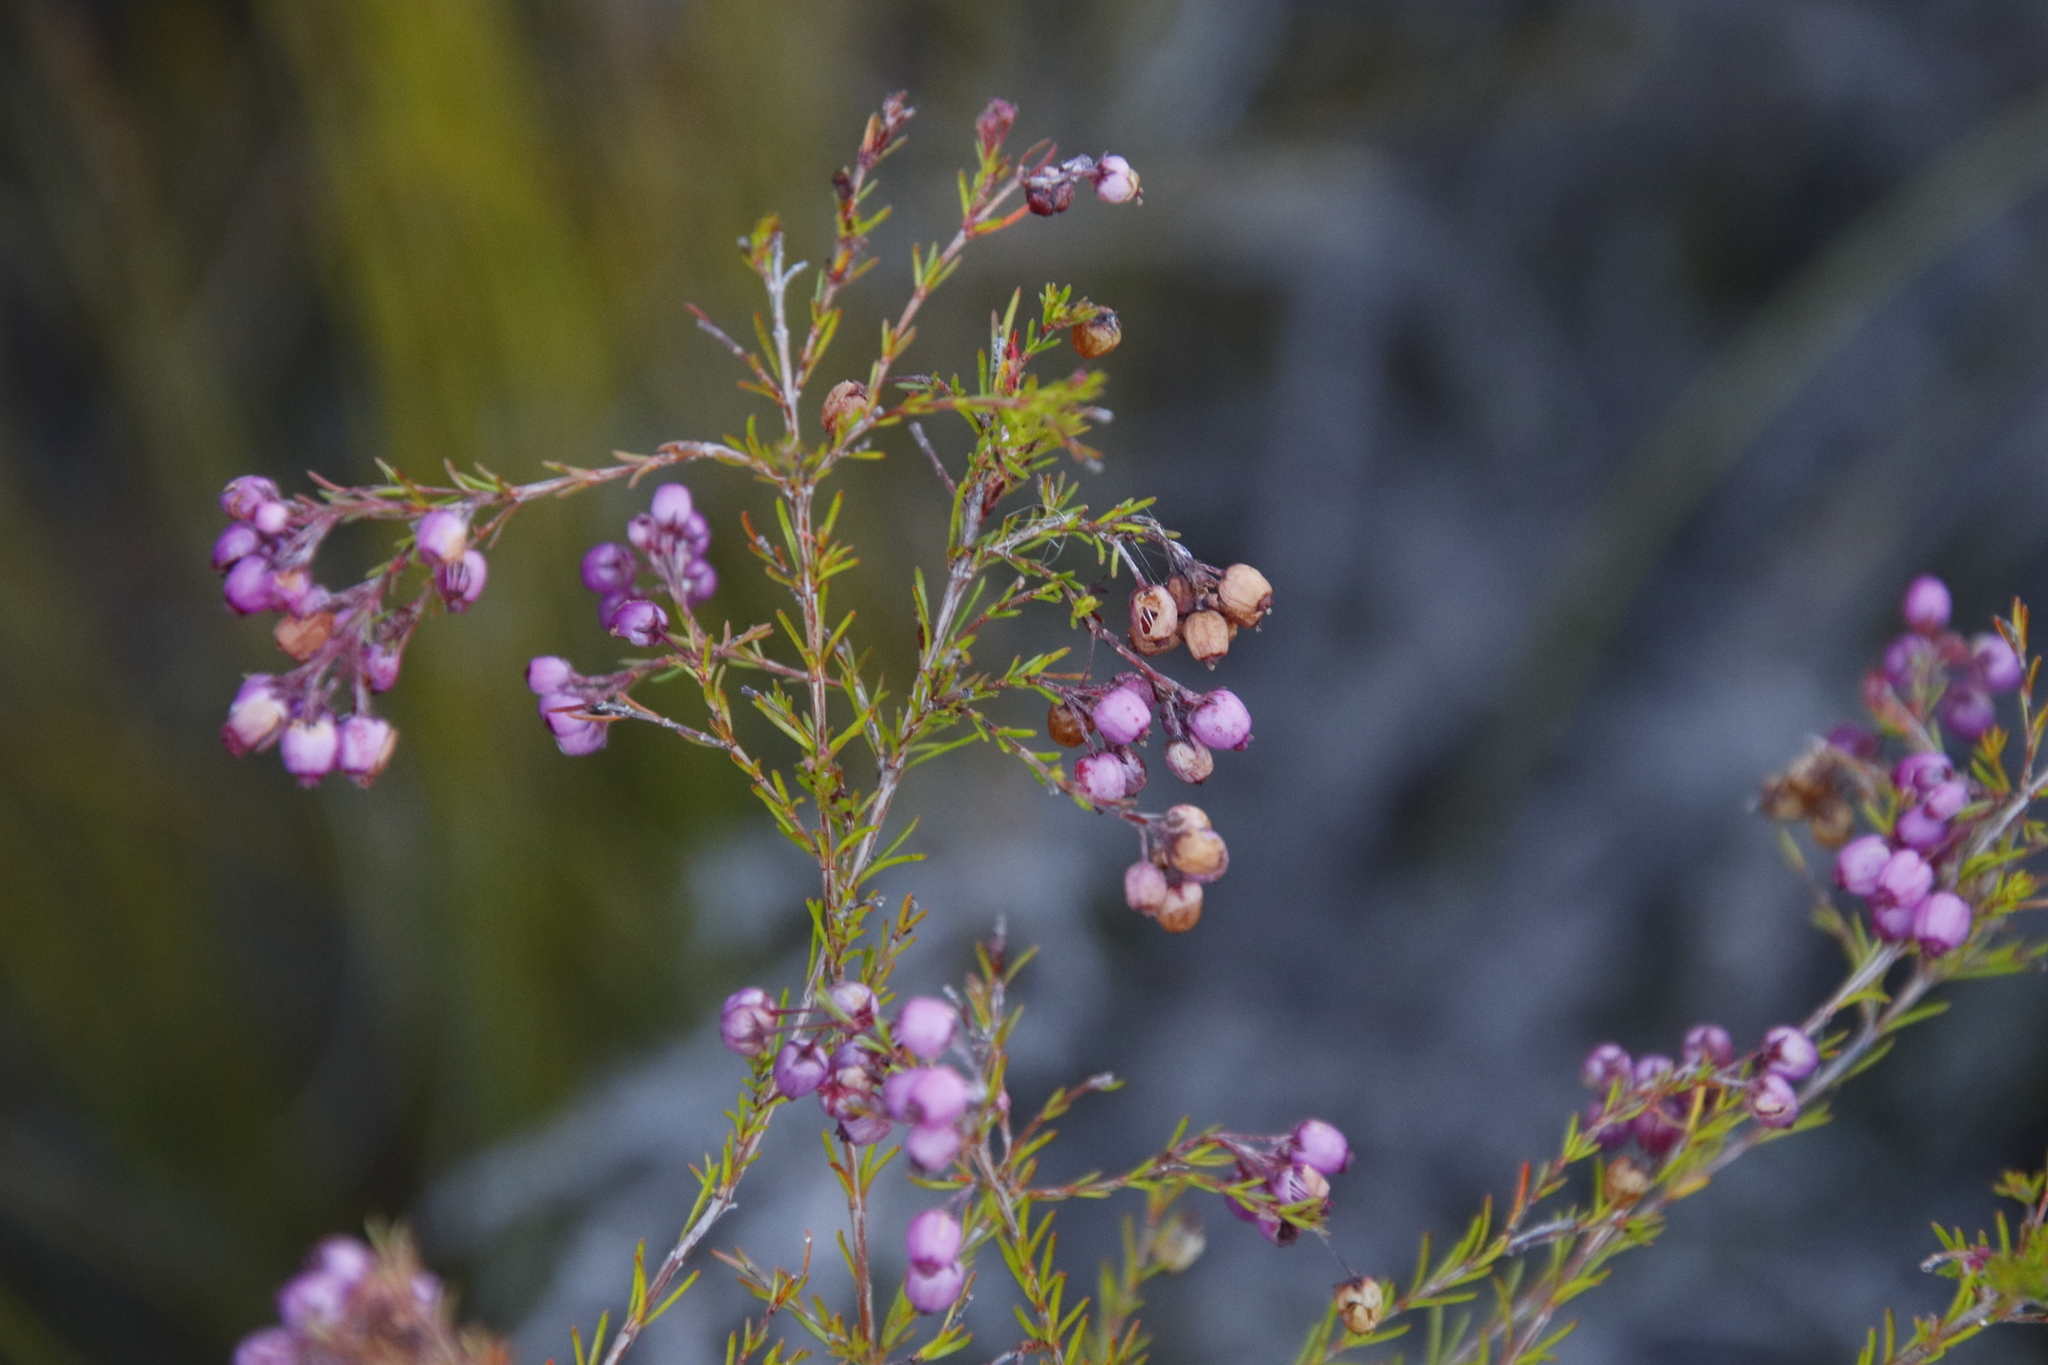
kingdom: Plantae
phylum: Tracheophyta
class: Magnoliopsida
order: Ericales
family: Ericaceae
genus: Erica
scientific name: Erica multumbellifera
